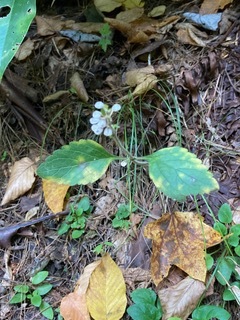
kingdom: Plantae
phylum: Tracheophyta
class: Magnoliopsida
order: Lamiales
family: Lamiaceae
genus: Scutellaria
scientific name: Scutellaria elliptica
